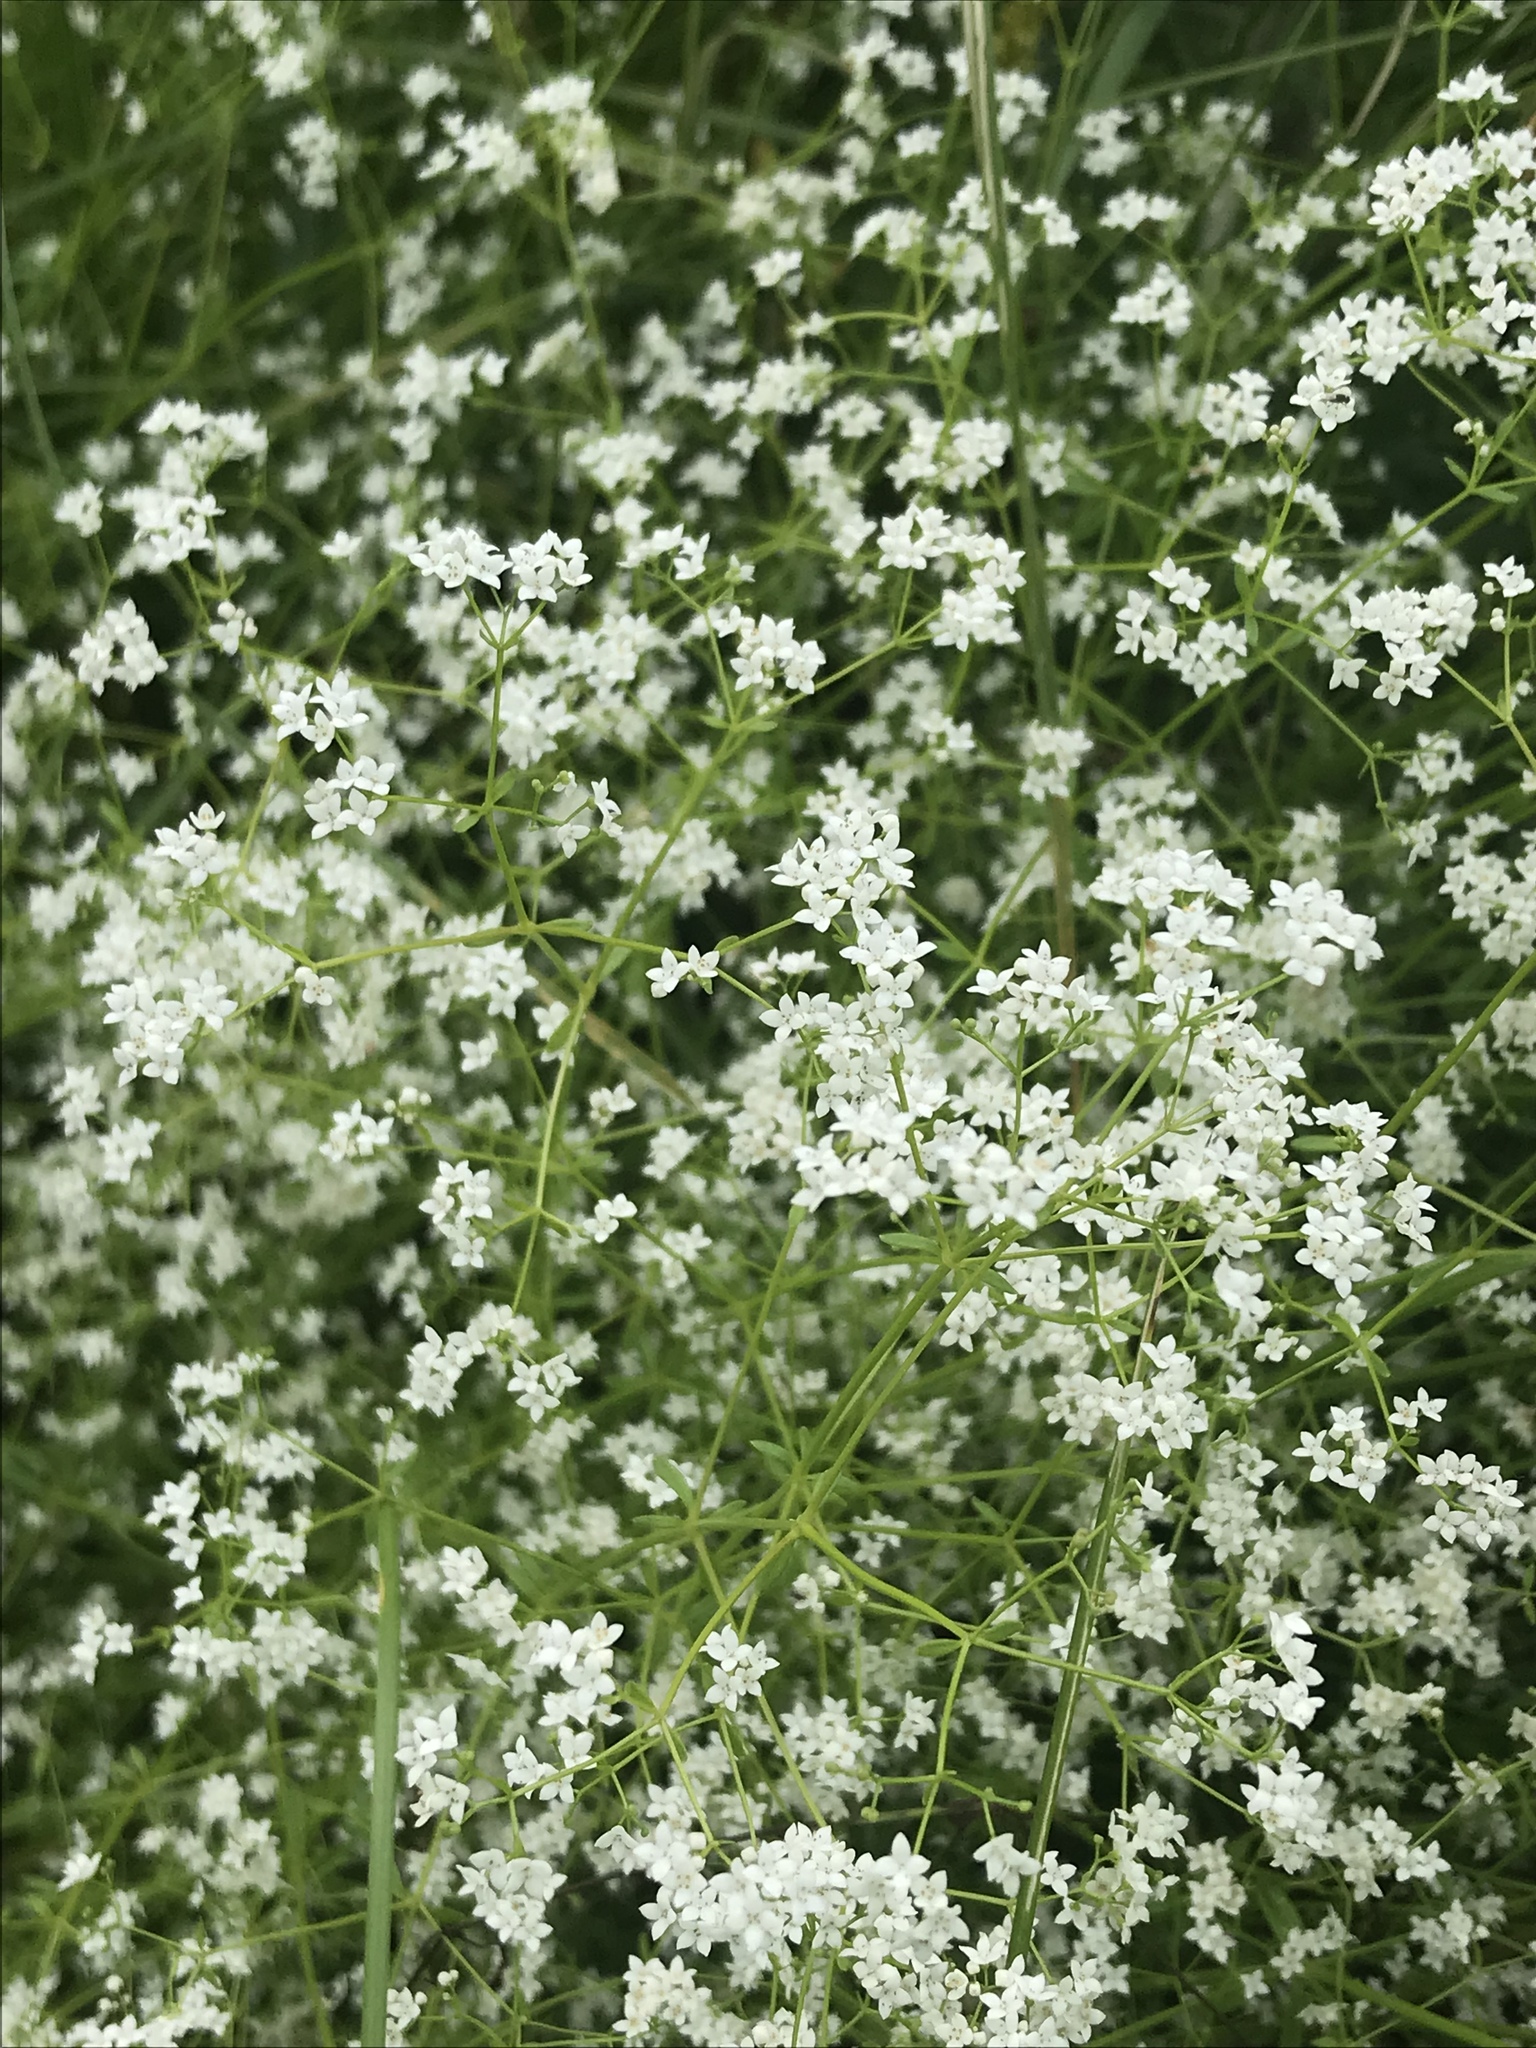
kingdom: Plantae
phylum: Tracheophyta
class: Magnoliopsida
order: Gentianales
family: Rubiaceae
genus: Galium
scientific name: Galium palustre
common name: Common marsh-bedstraw
